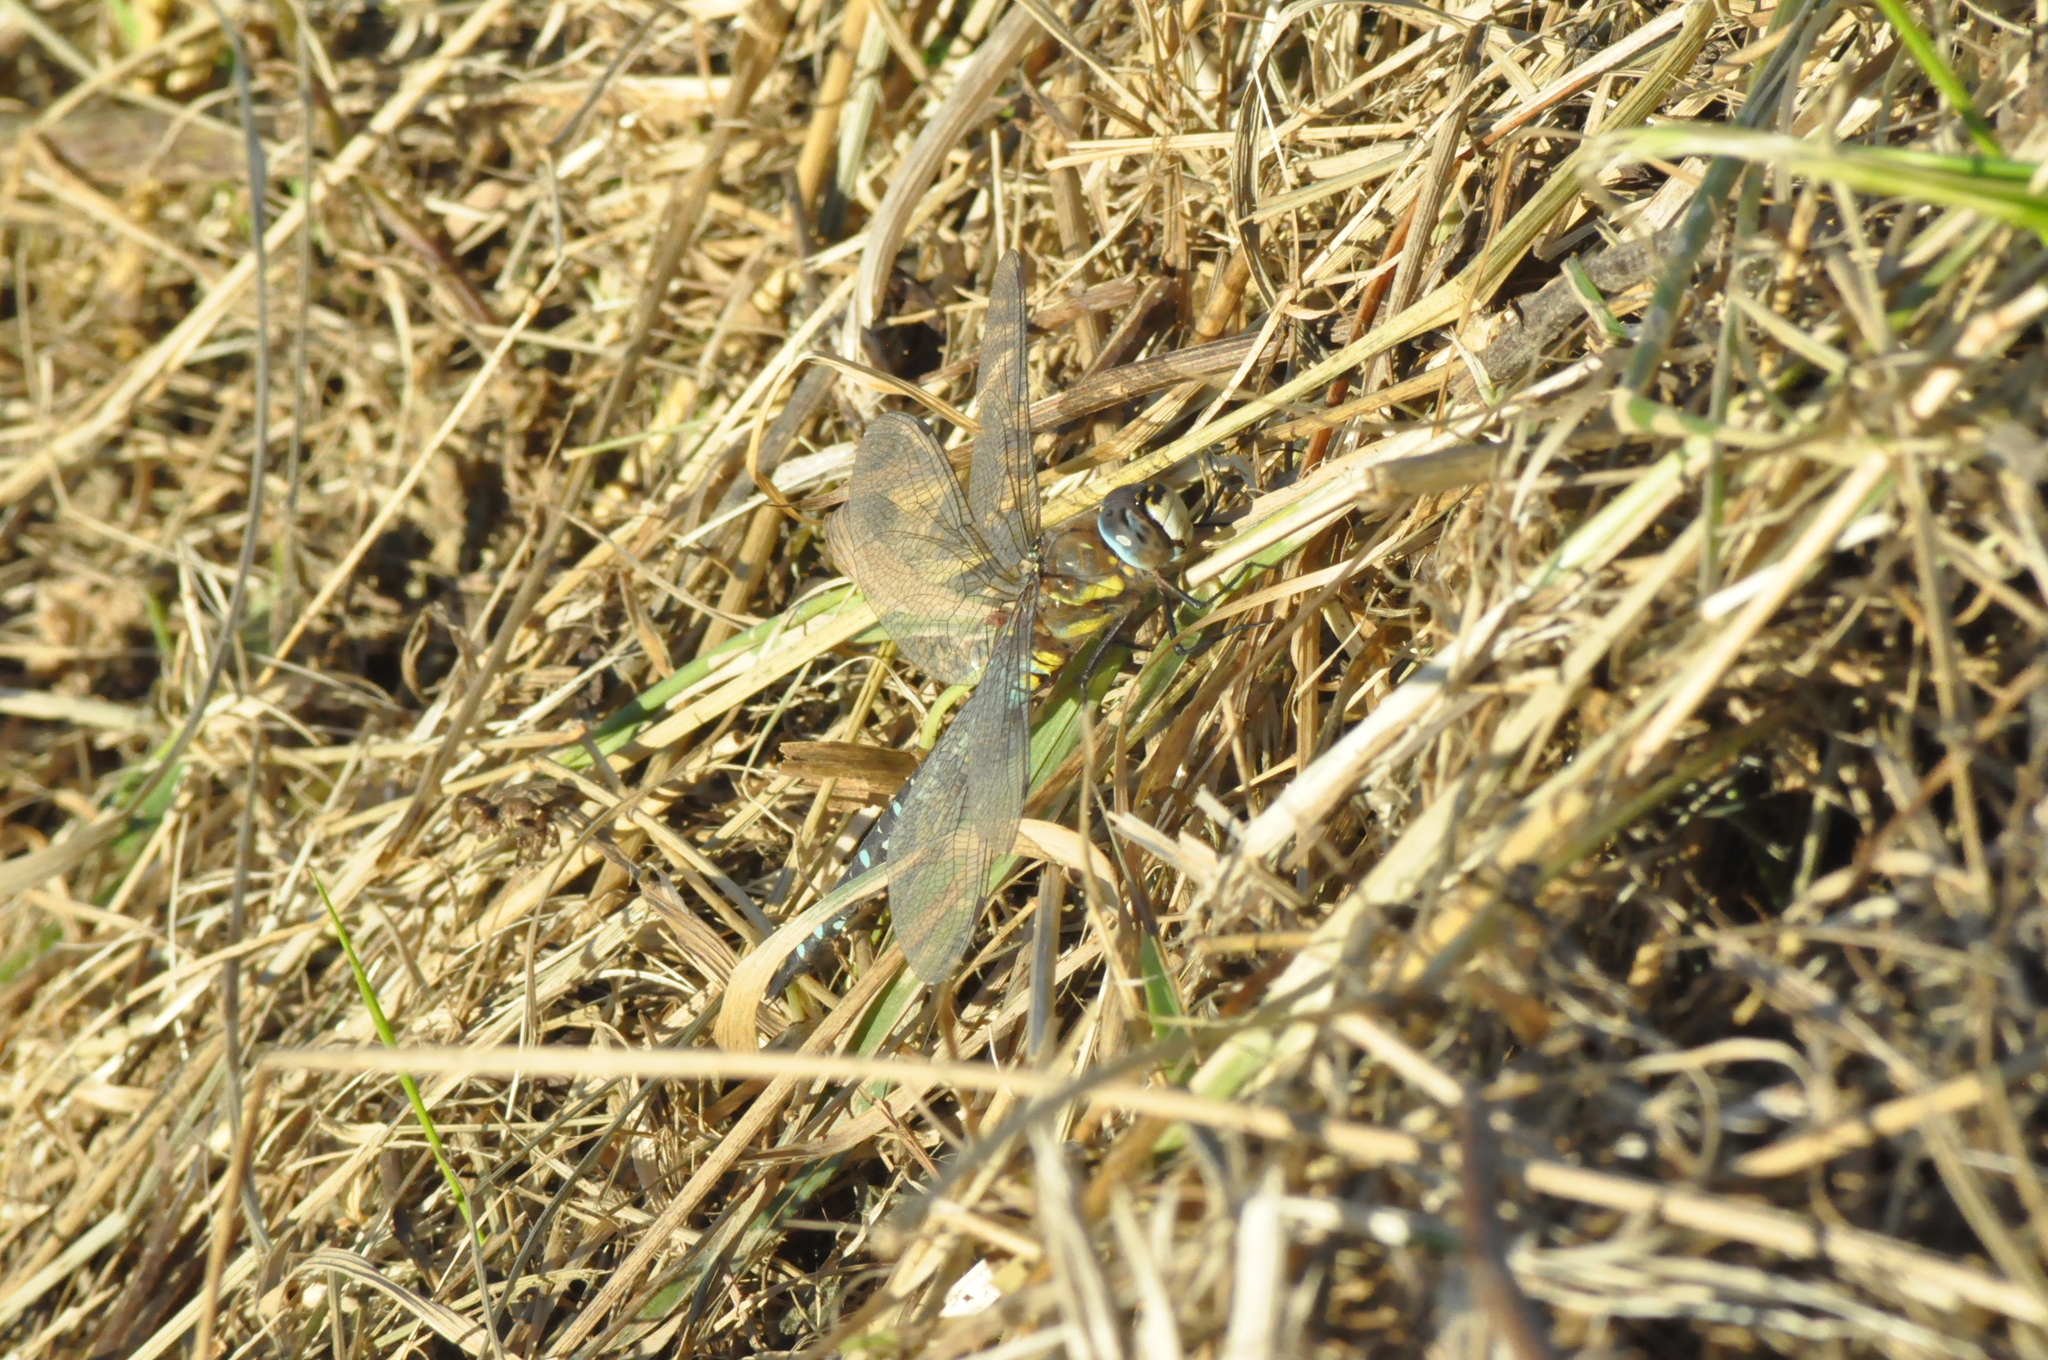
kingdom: Animalia
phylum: Arthropoda
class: Insecta
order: Odonata
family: Aeshnidae
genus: Aeshna
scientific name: Aeshna mixta
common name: Migrant hawker
